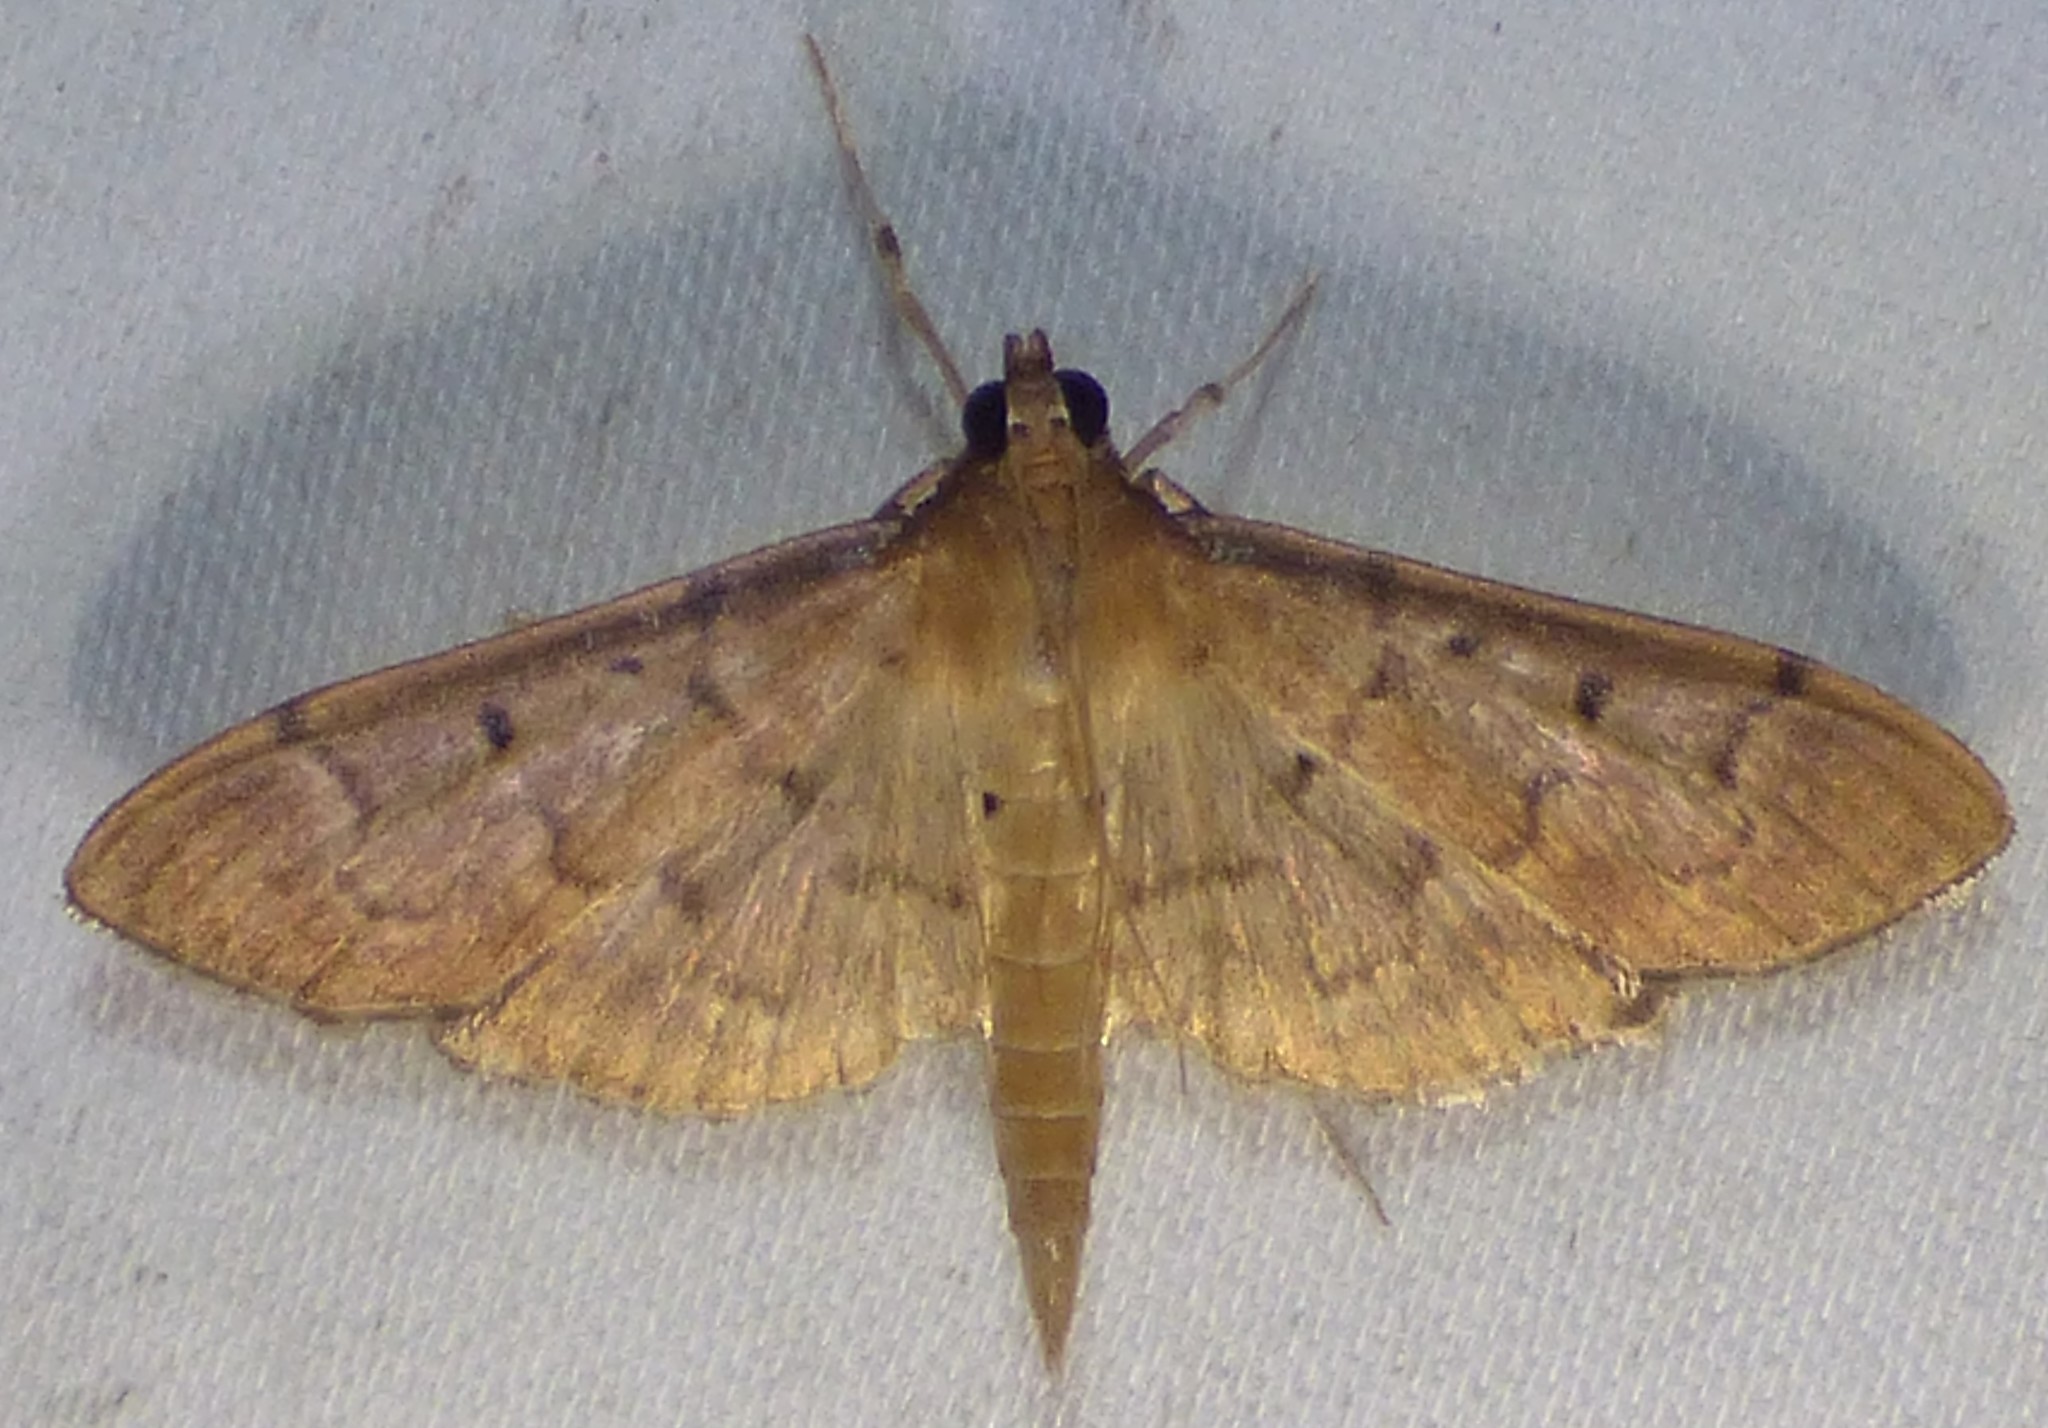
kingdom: Animalia
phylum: Arthropoda
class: Insecta
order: Lepidoptera
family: Crambidae
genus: Herpetogramma
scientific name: Herpetogramma bipunctalis
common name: Southern beet webworm
